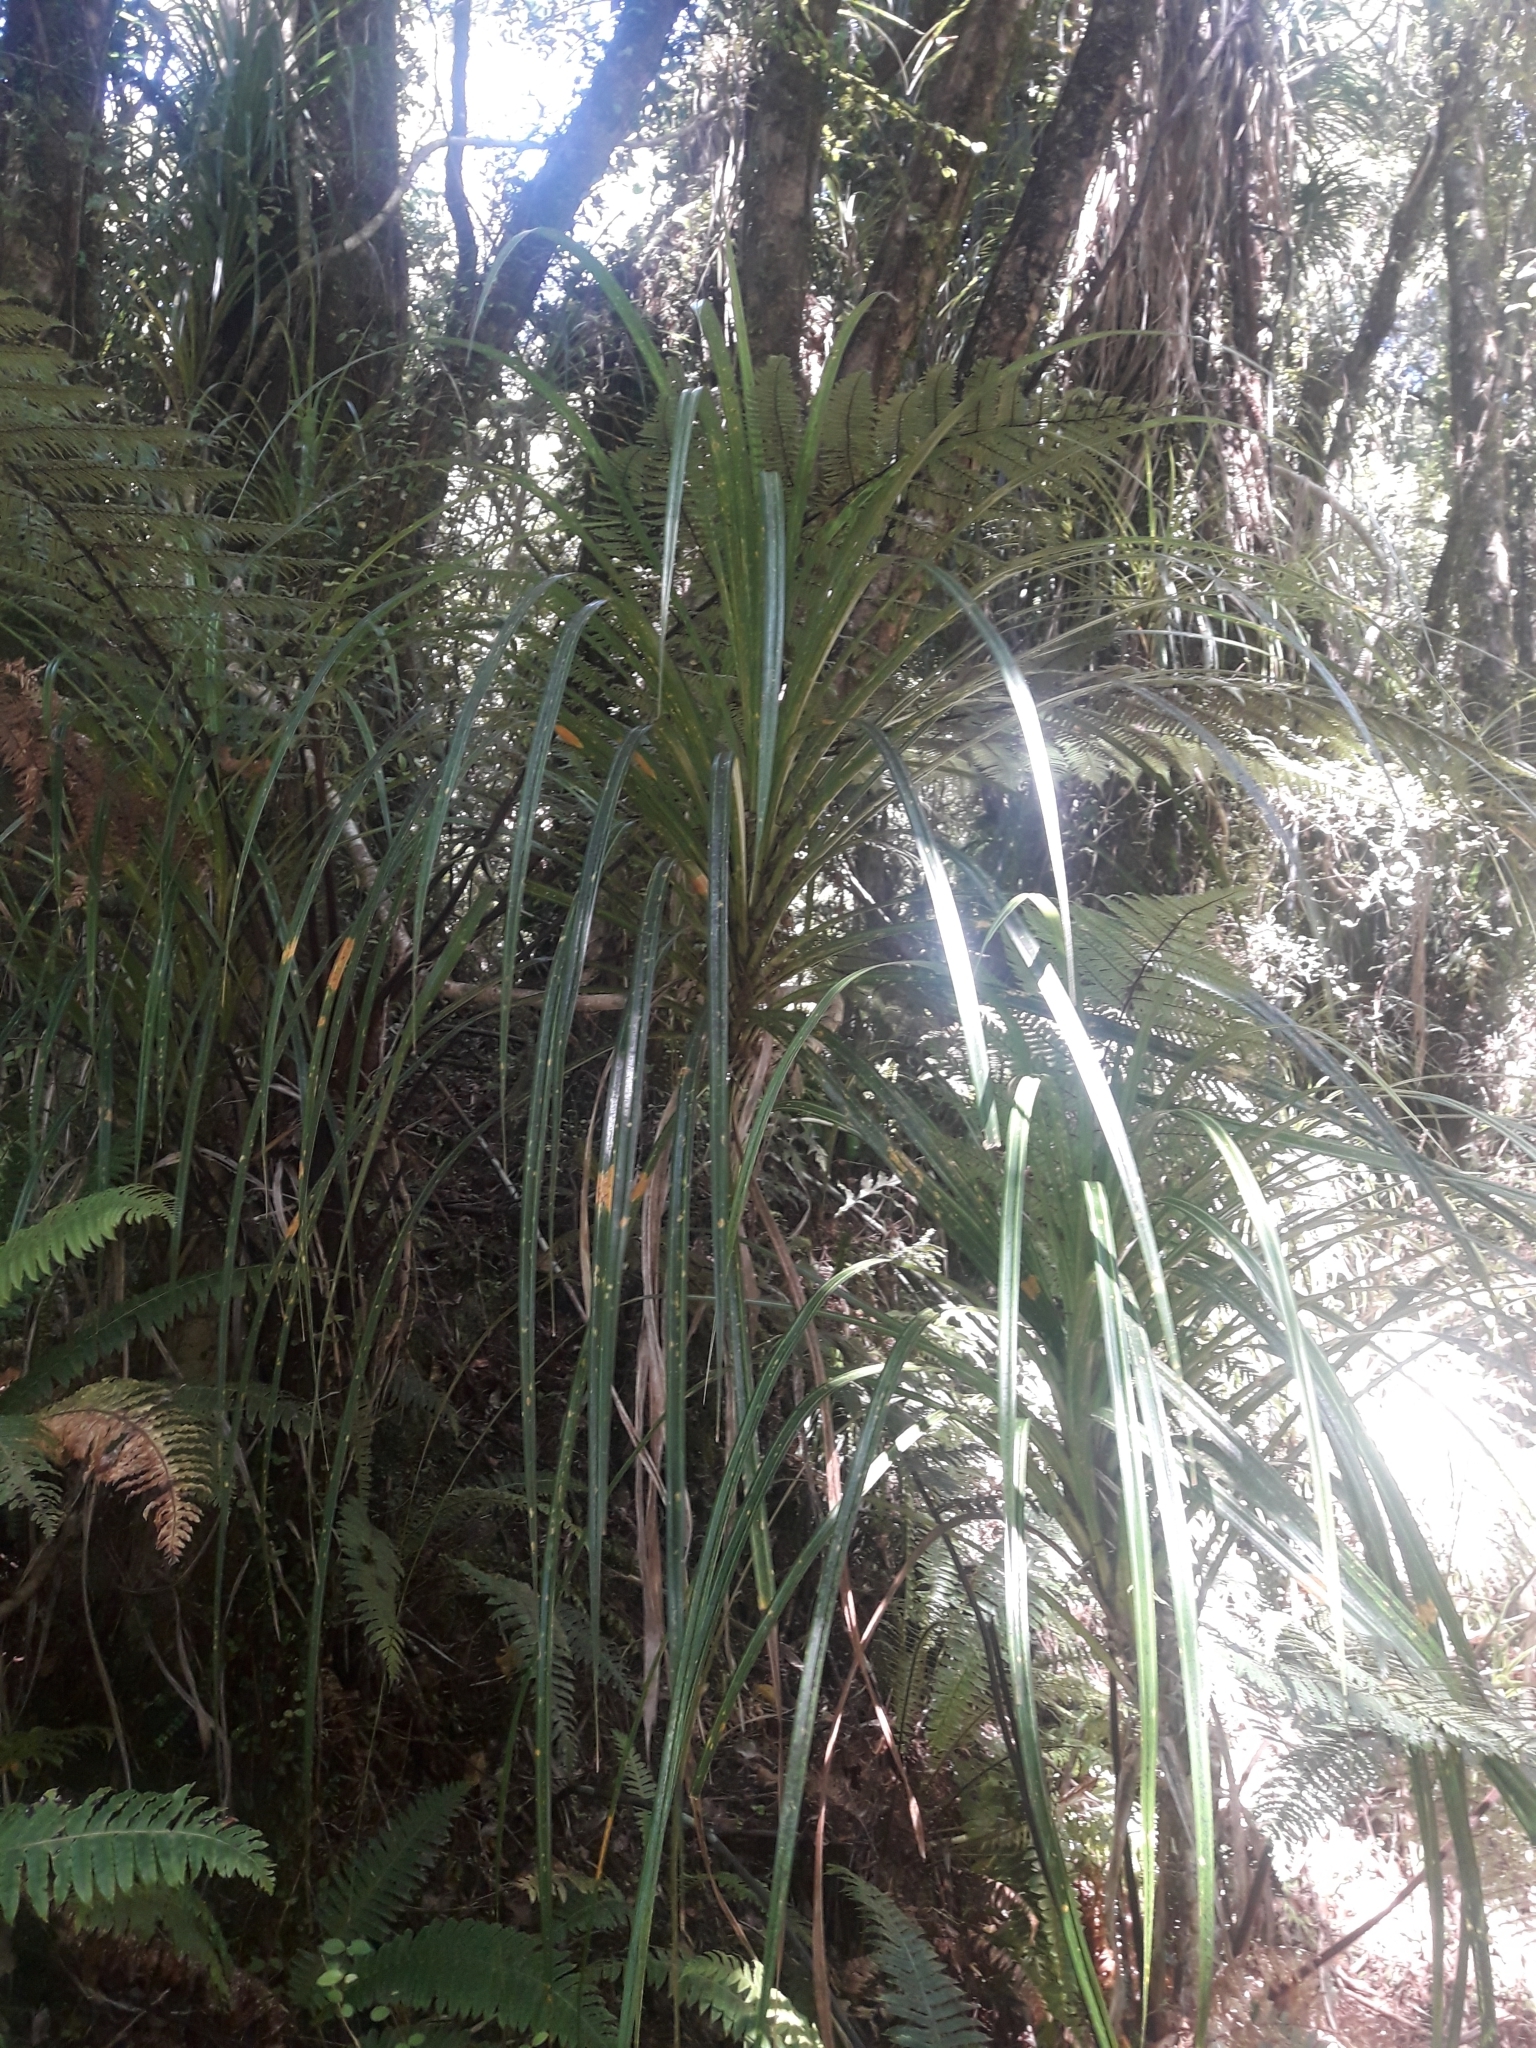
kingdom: Plantae
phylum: Tracheophyta
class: Liliopsida
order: Pandanales
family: Pandanaceae
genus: Freycinetia
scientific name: Freycinetia banksii
